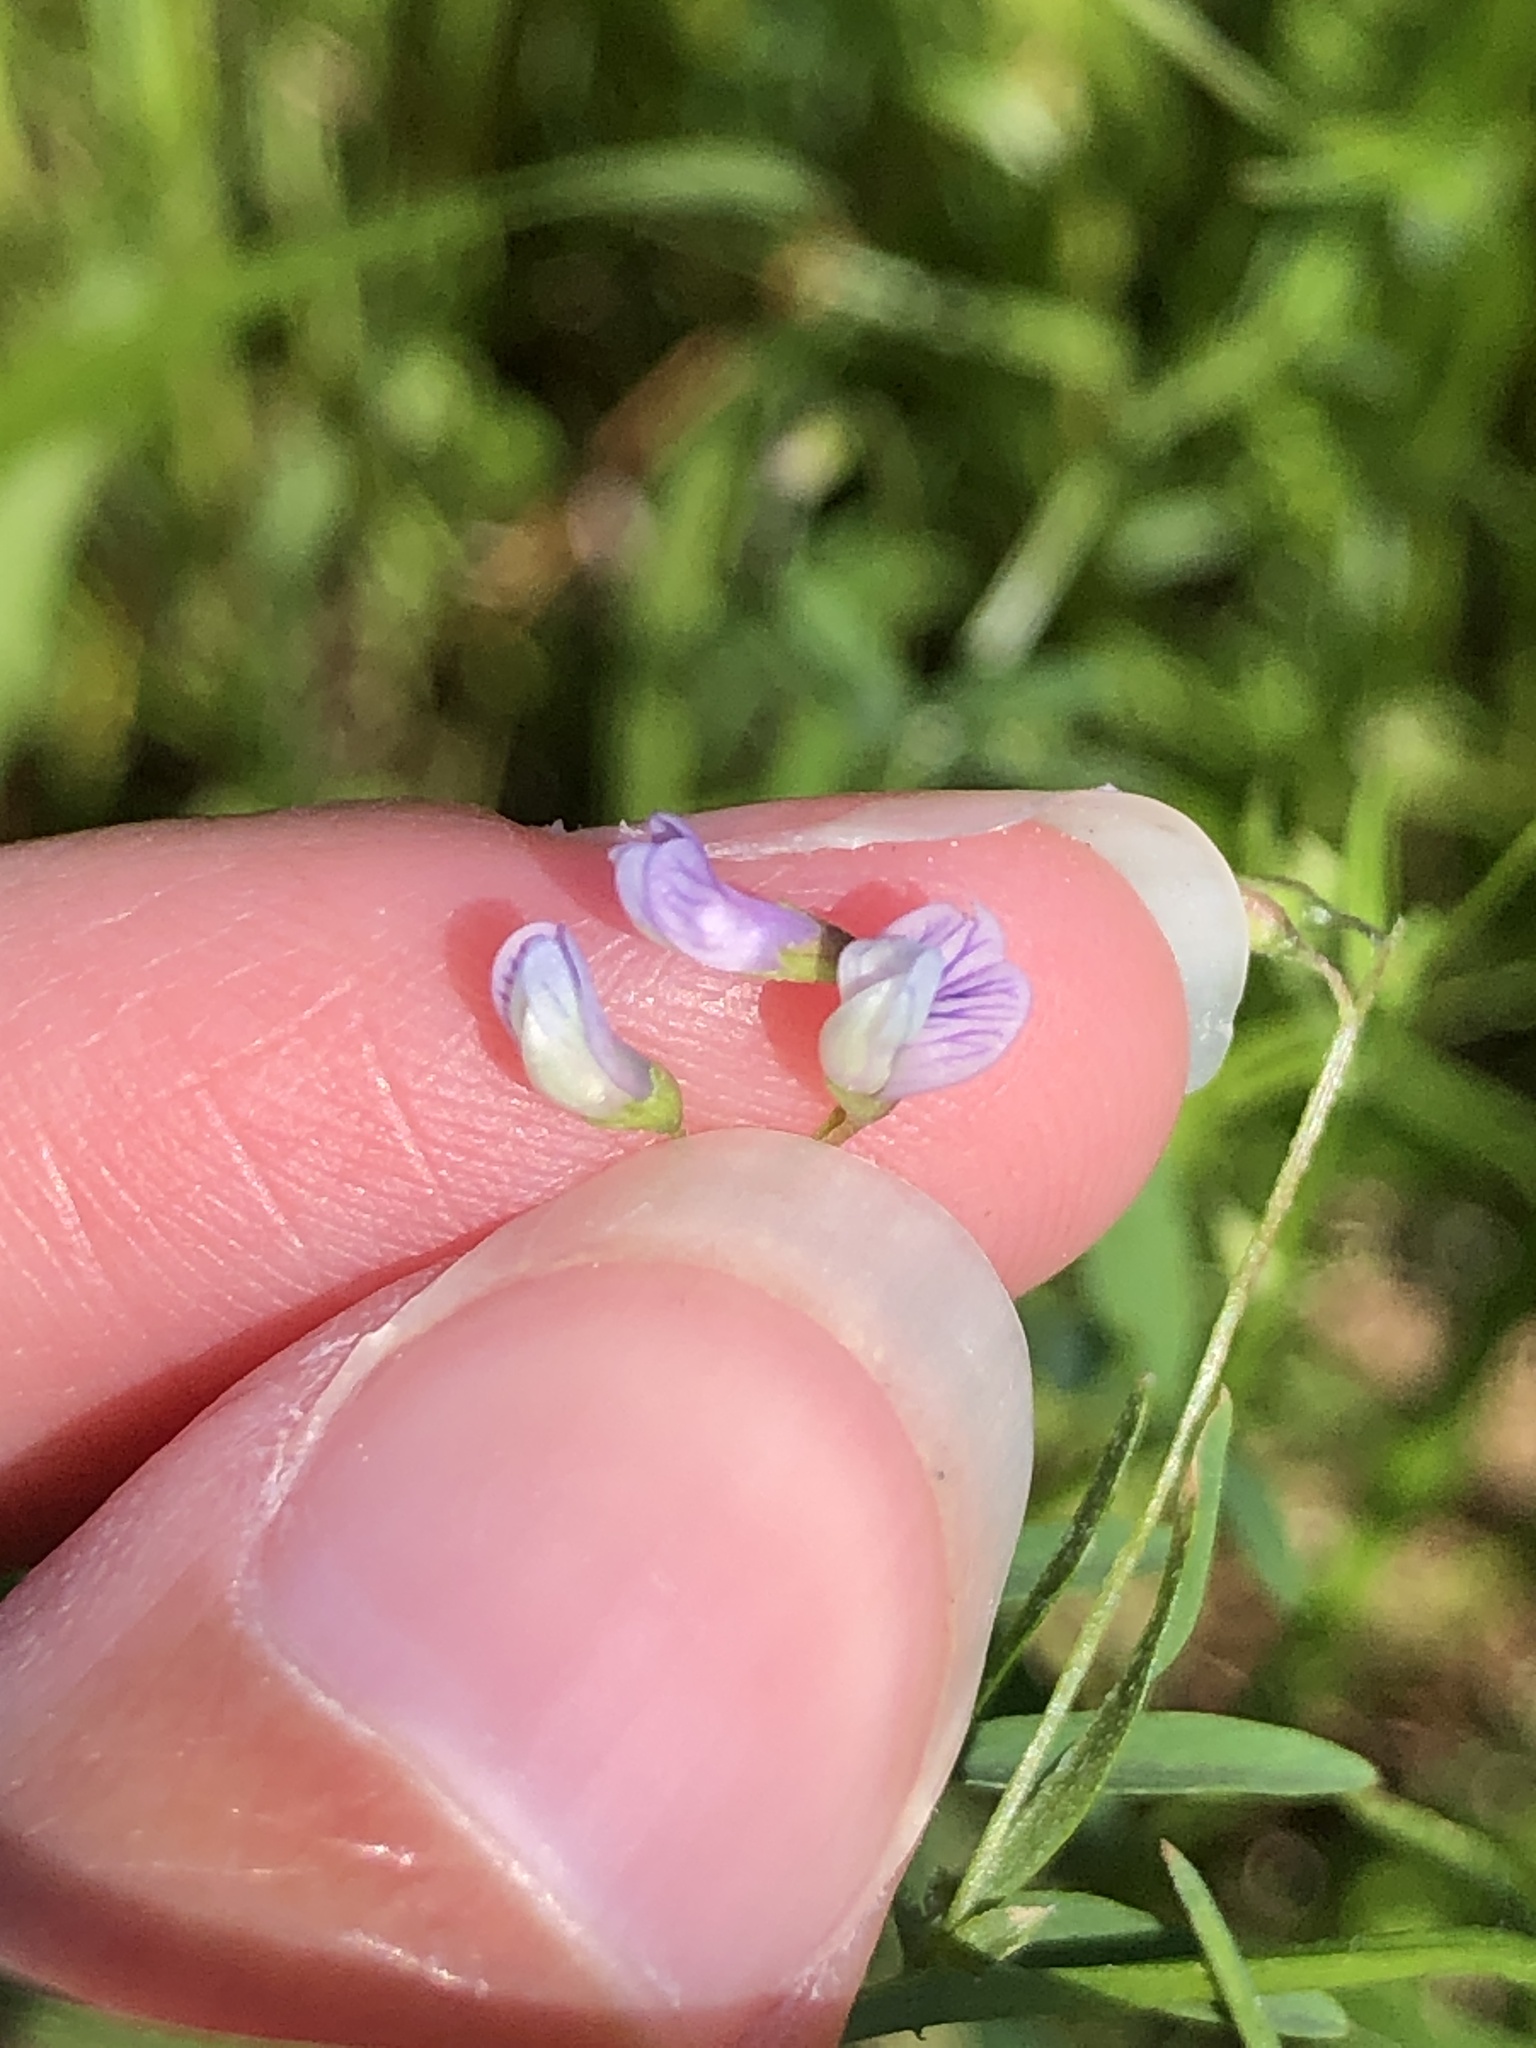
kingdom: Plantae
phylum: Tracheophyta
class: Magnoliopsida
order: Fabales
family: Fabaceae
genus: Vicia
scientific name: Vicia tetrasperma
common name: Smooth tare
